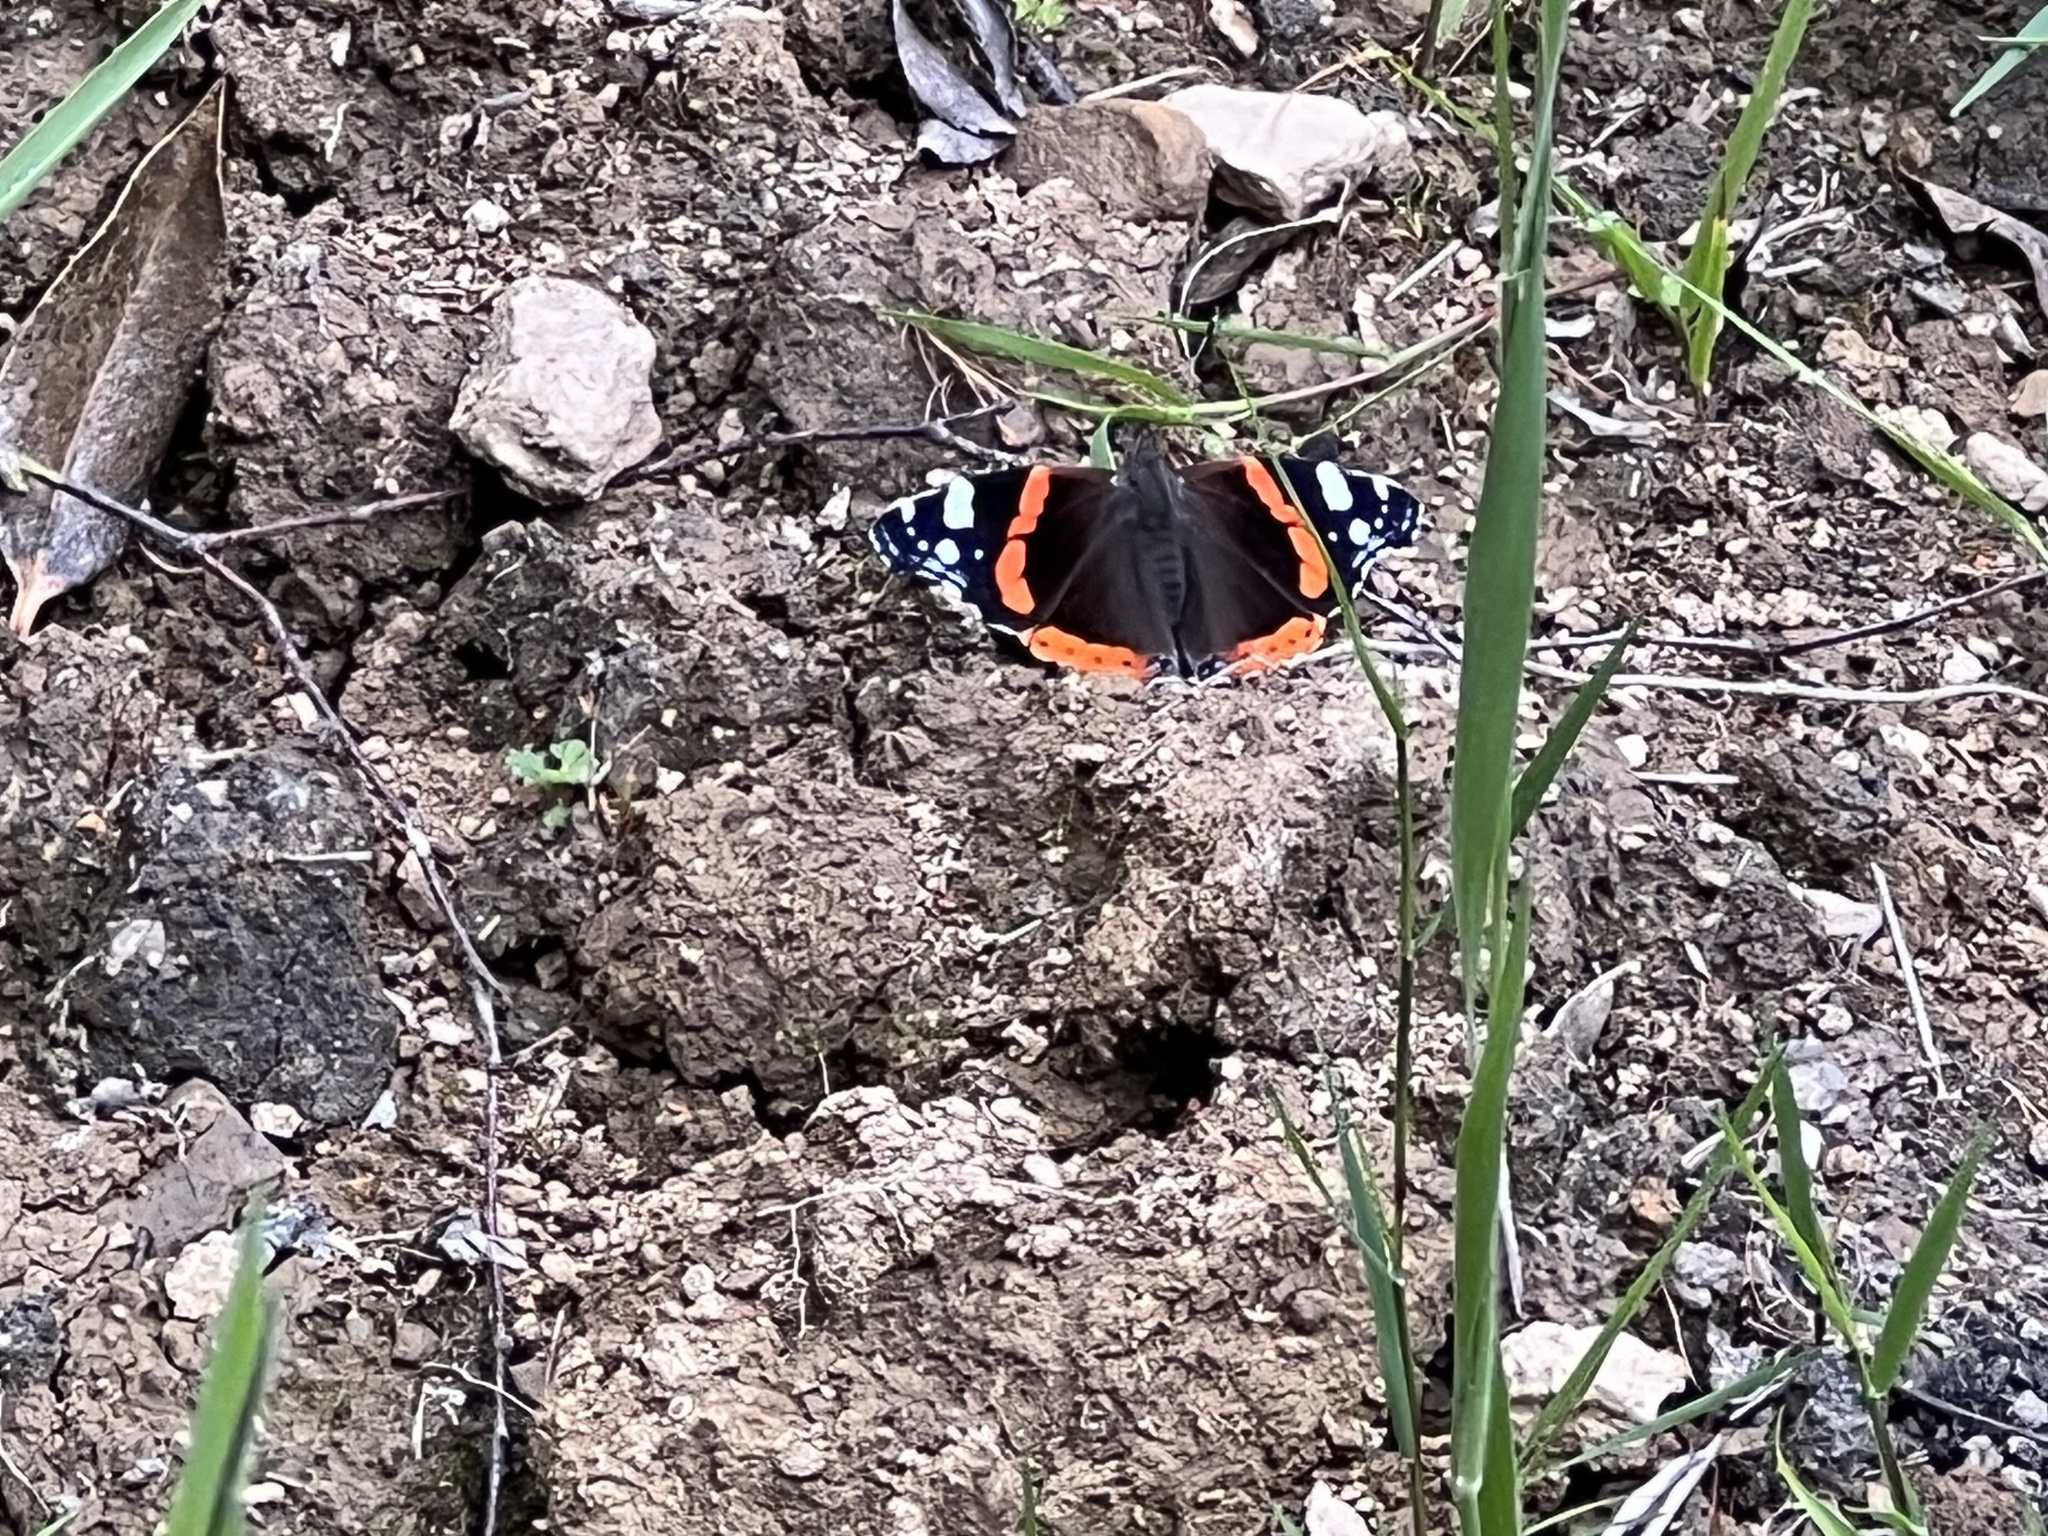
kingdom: Animalia
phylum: Arthropoda
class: Insecta
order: Lepidoptera
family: Nymphalidae
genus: Vanessa
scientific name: Vanessa atalanta
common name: Red admiral
